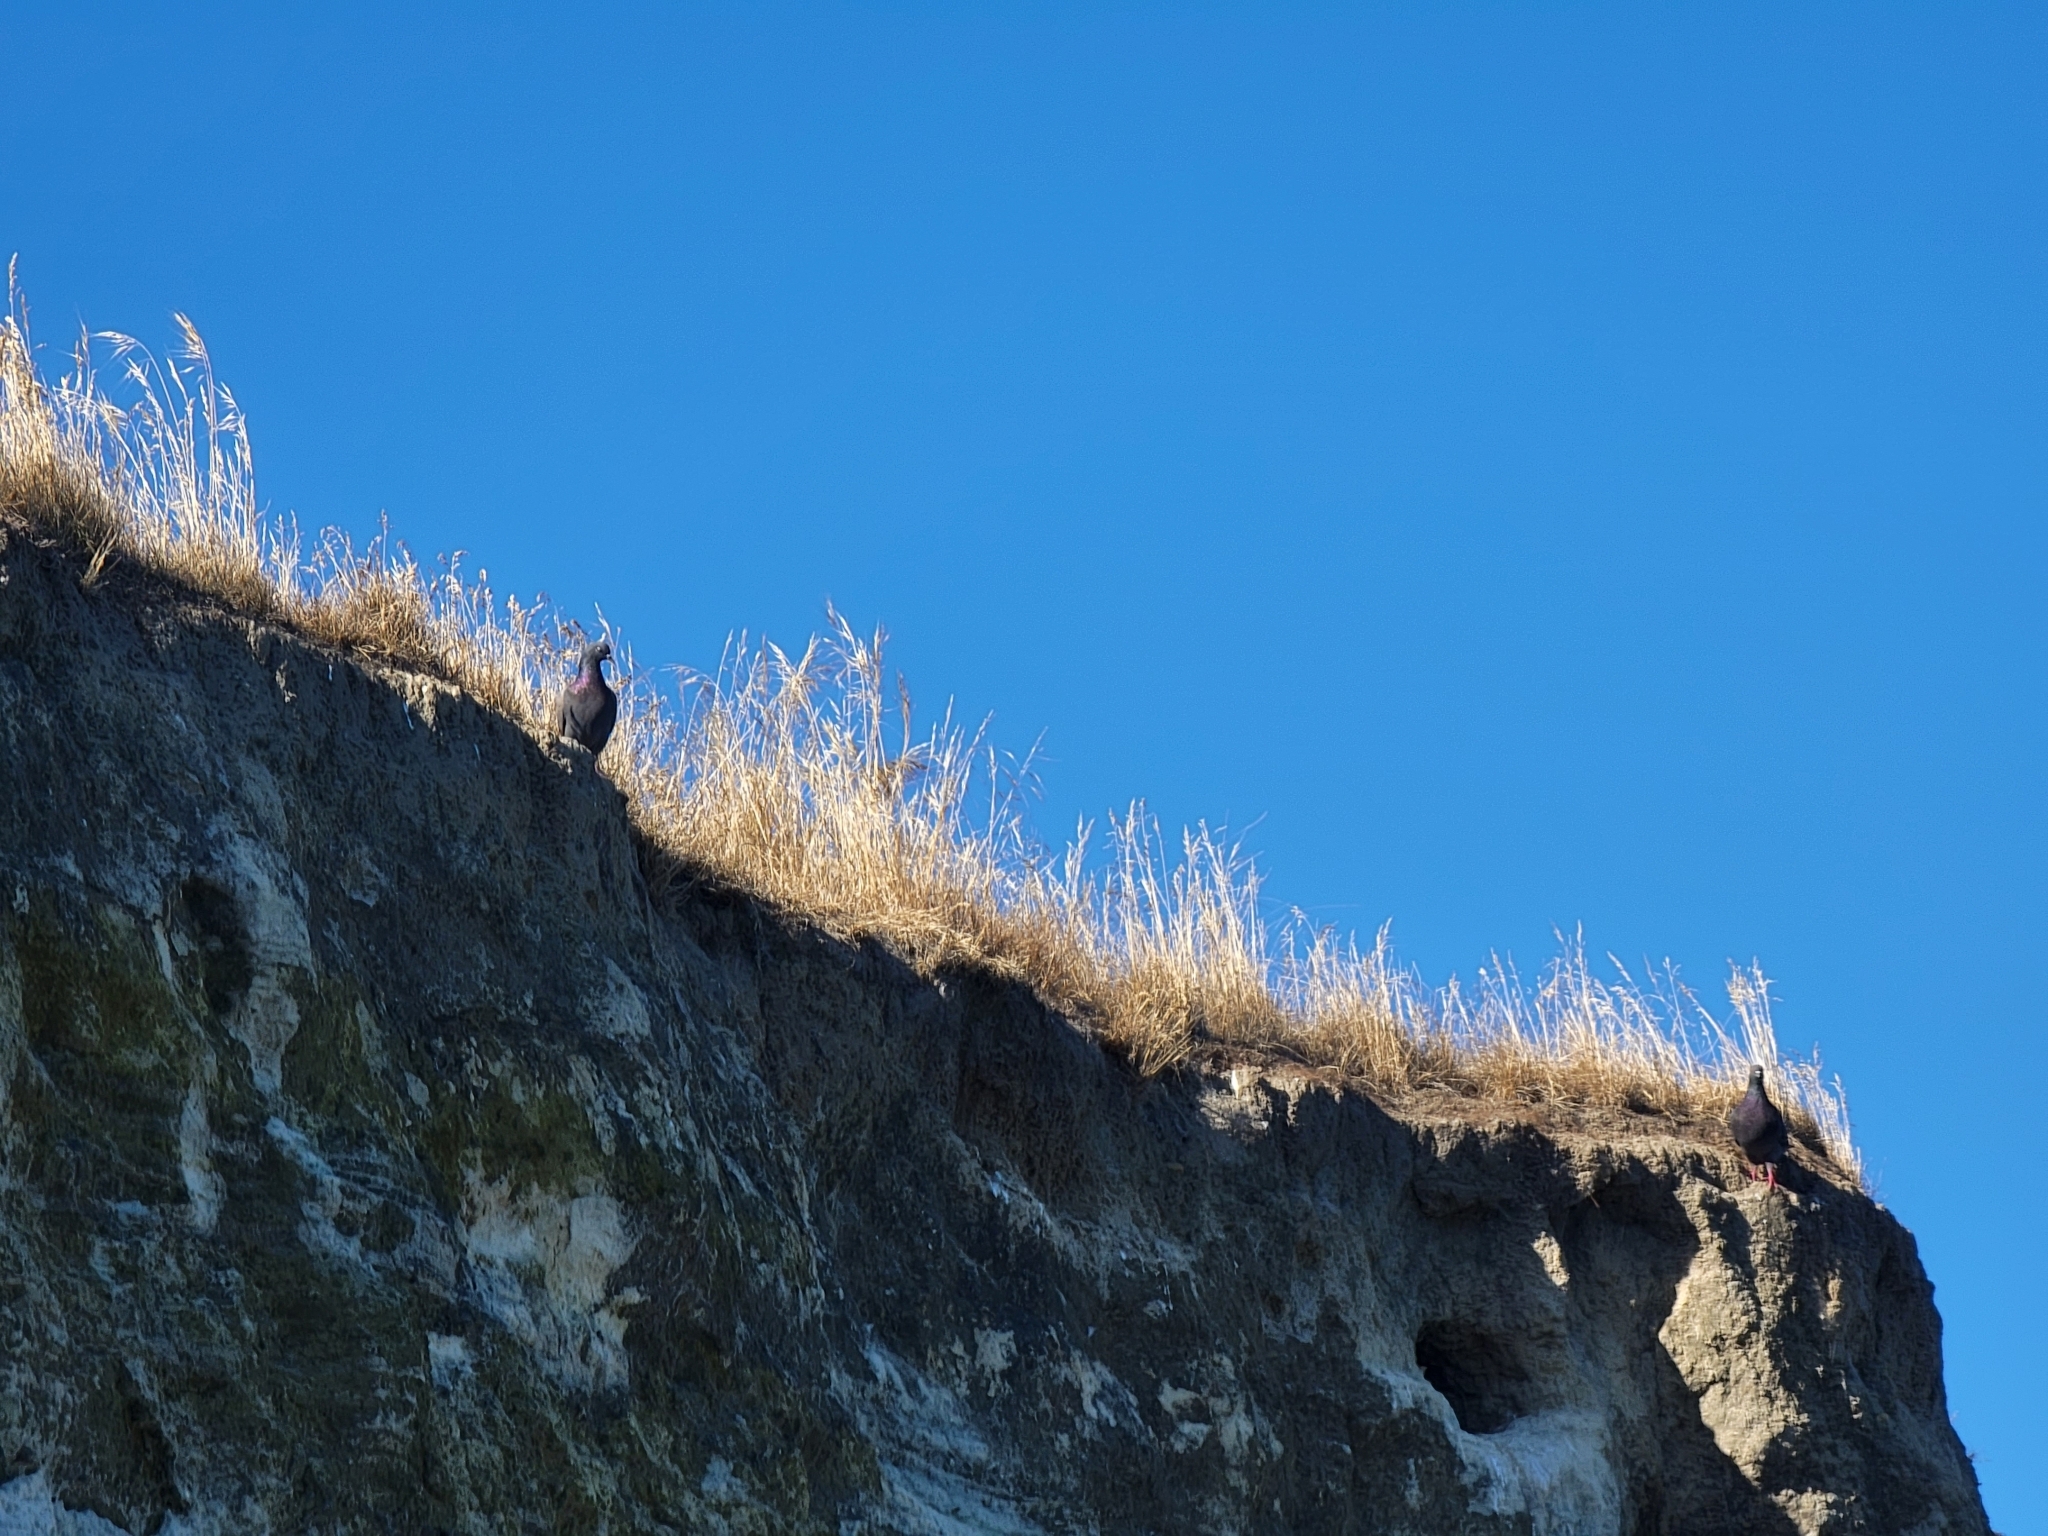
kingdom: Animalia
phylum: Chordata
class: Aves
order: Columbiformes
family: Columbidae
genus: Columba
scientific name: Columba livia
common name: Rock pigeon
